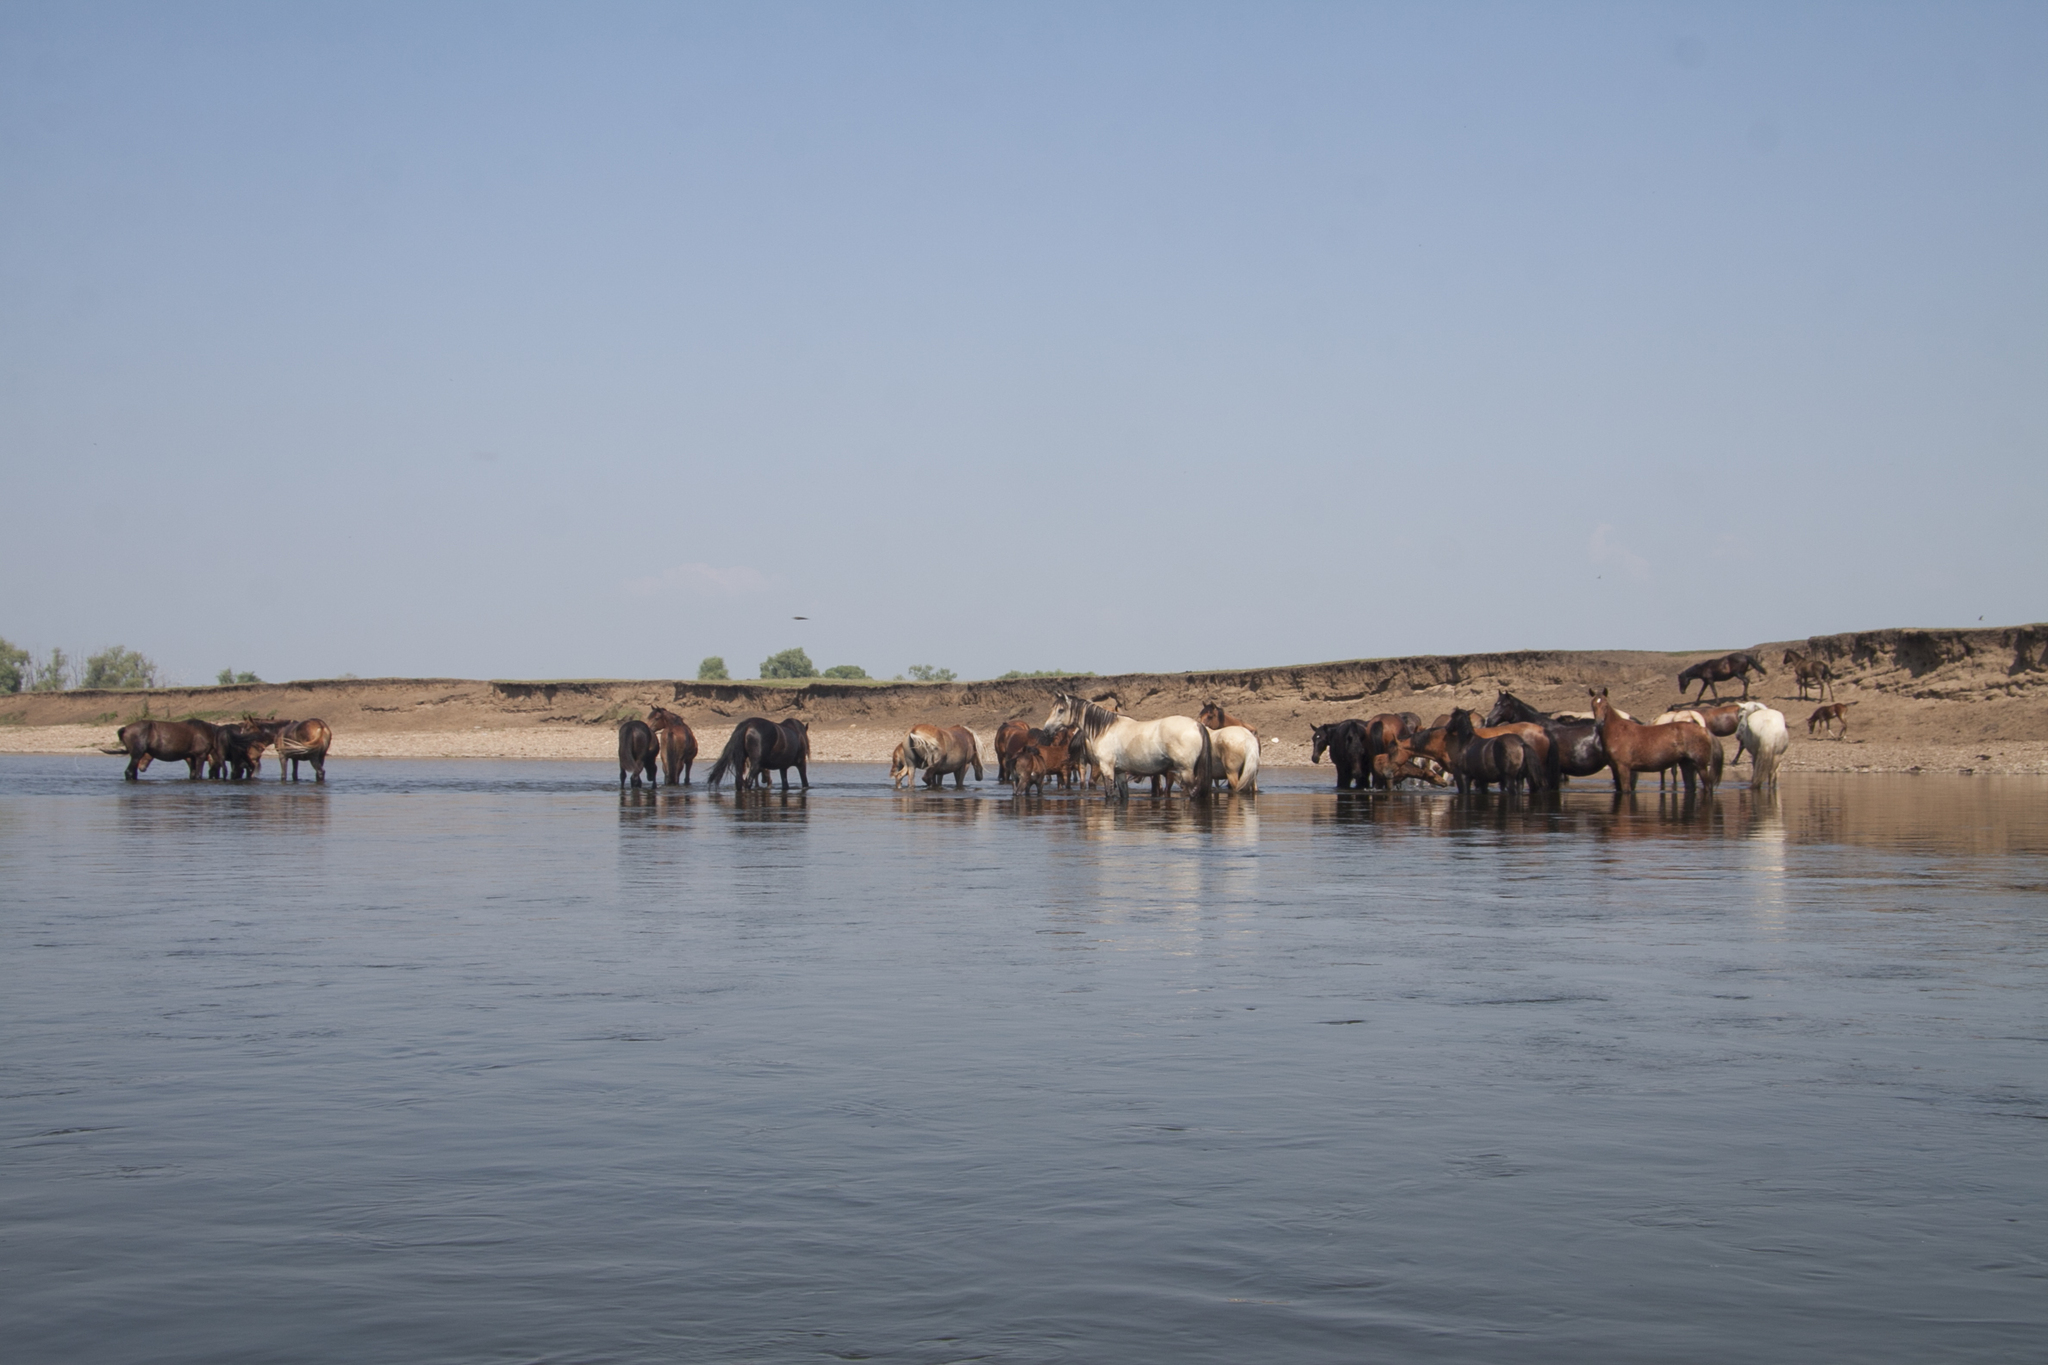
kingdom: Animalia
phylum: Chordata
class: Aves
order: Passeriformes
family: Hirundinidae
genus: Riparia
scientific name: Riparia riparia
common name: Sand martin
